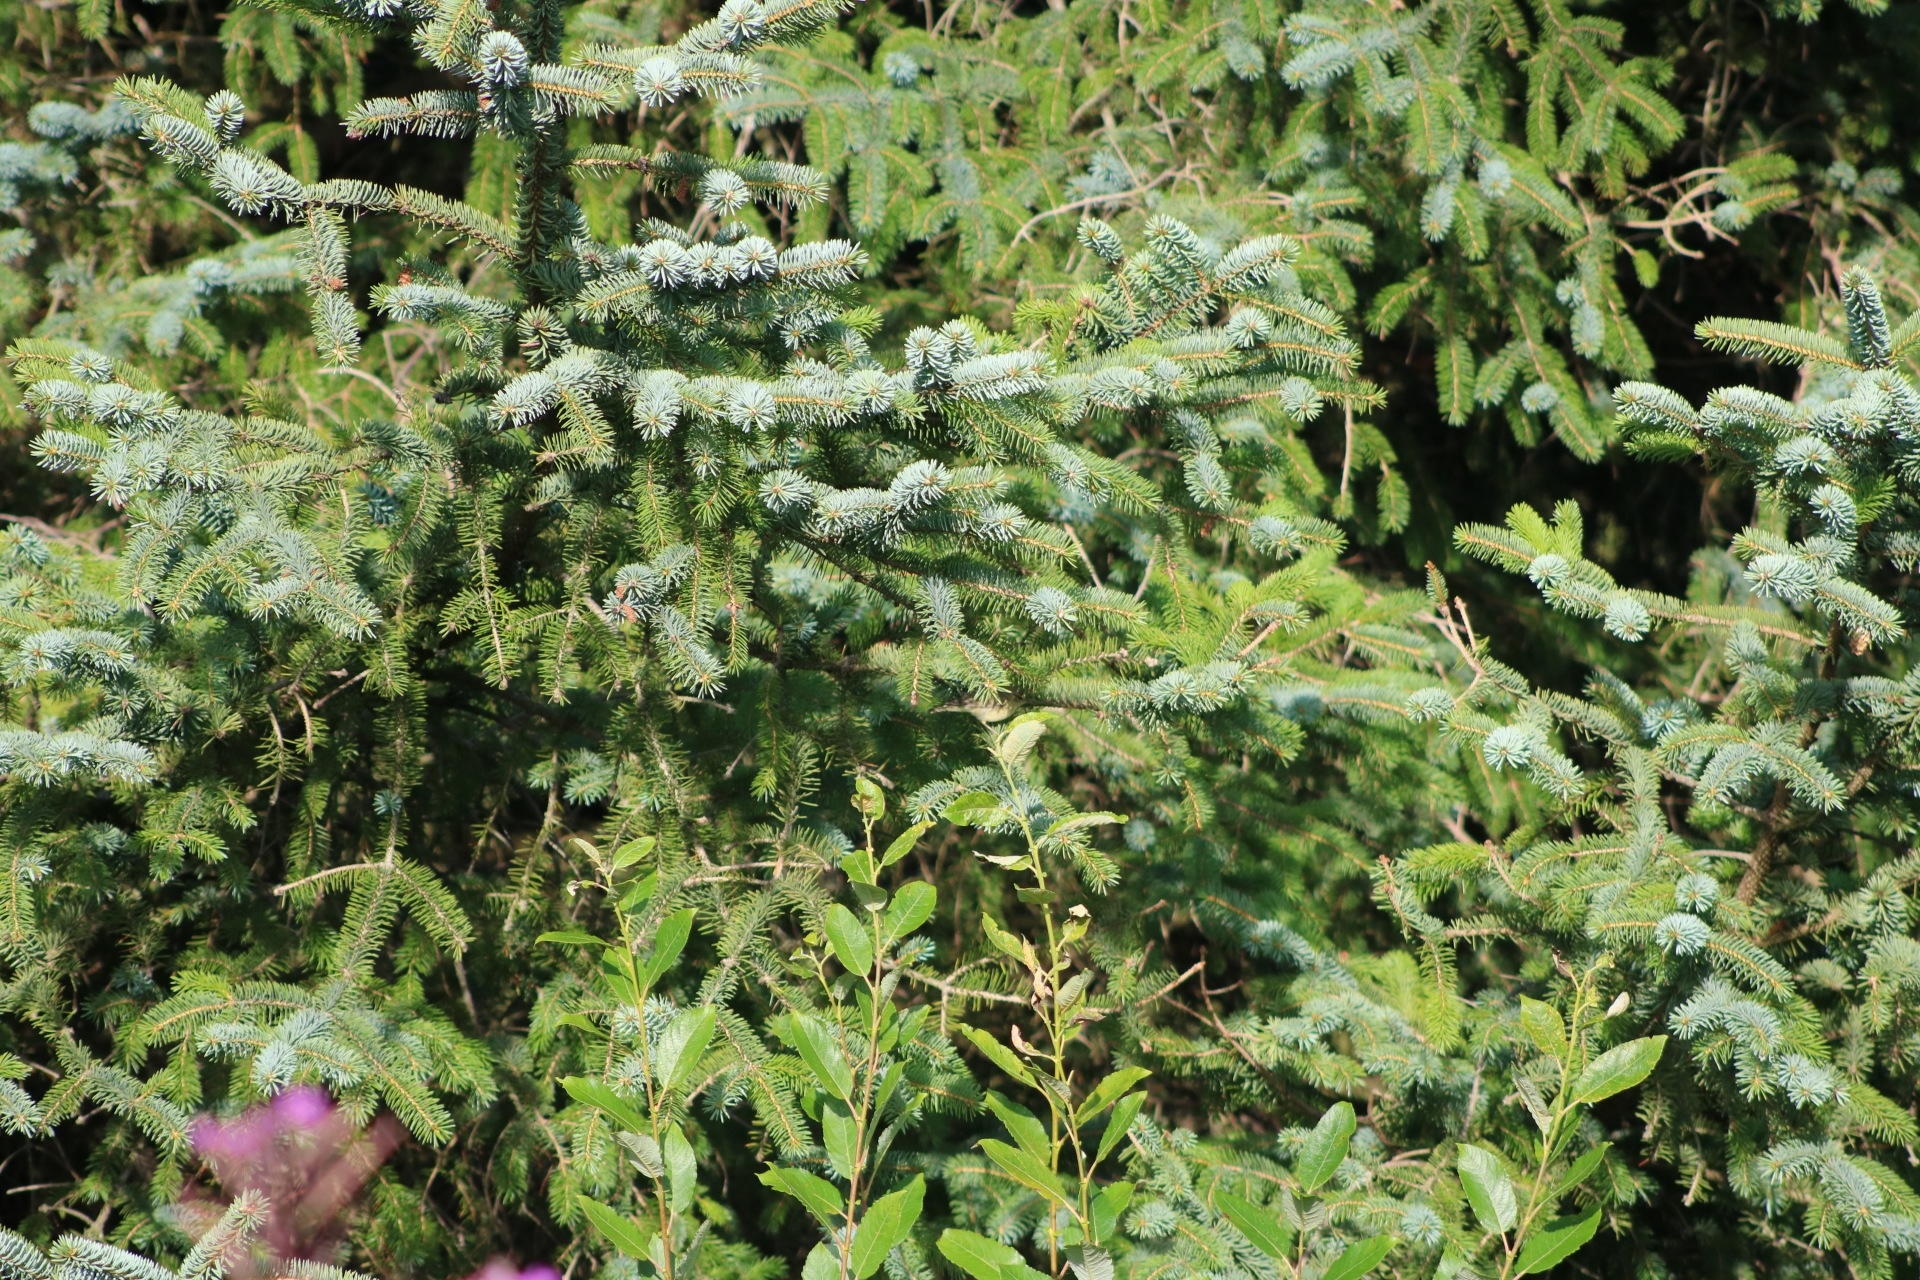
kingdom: Animalia
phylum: Chordata
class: Aves
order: Passeriformes
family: Phylloscopidae
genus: Phylloscopus
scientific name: Phylloscopus trochilus
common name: Willow warbler
